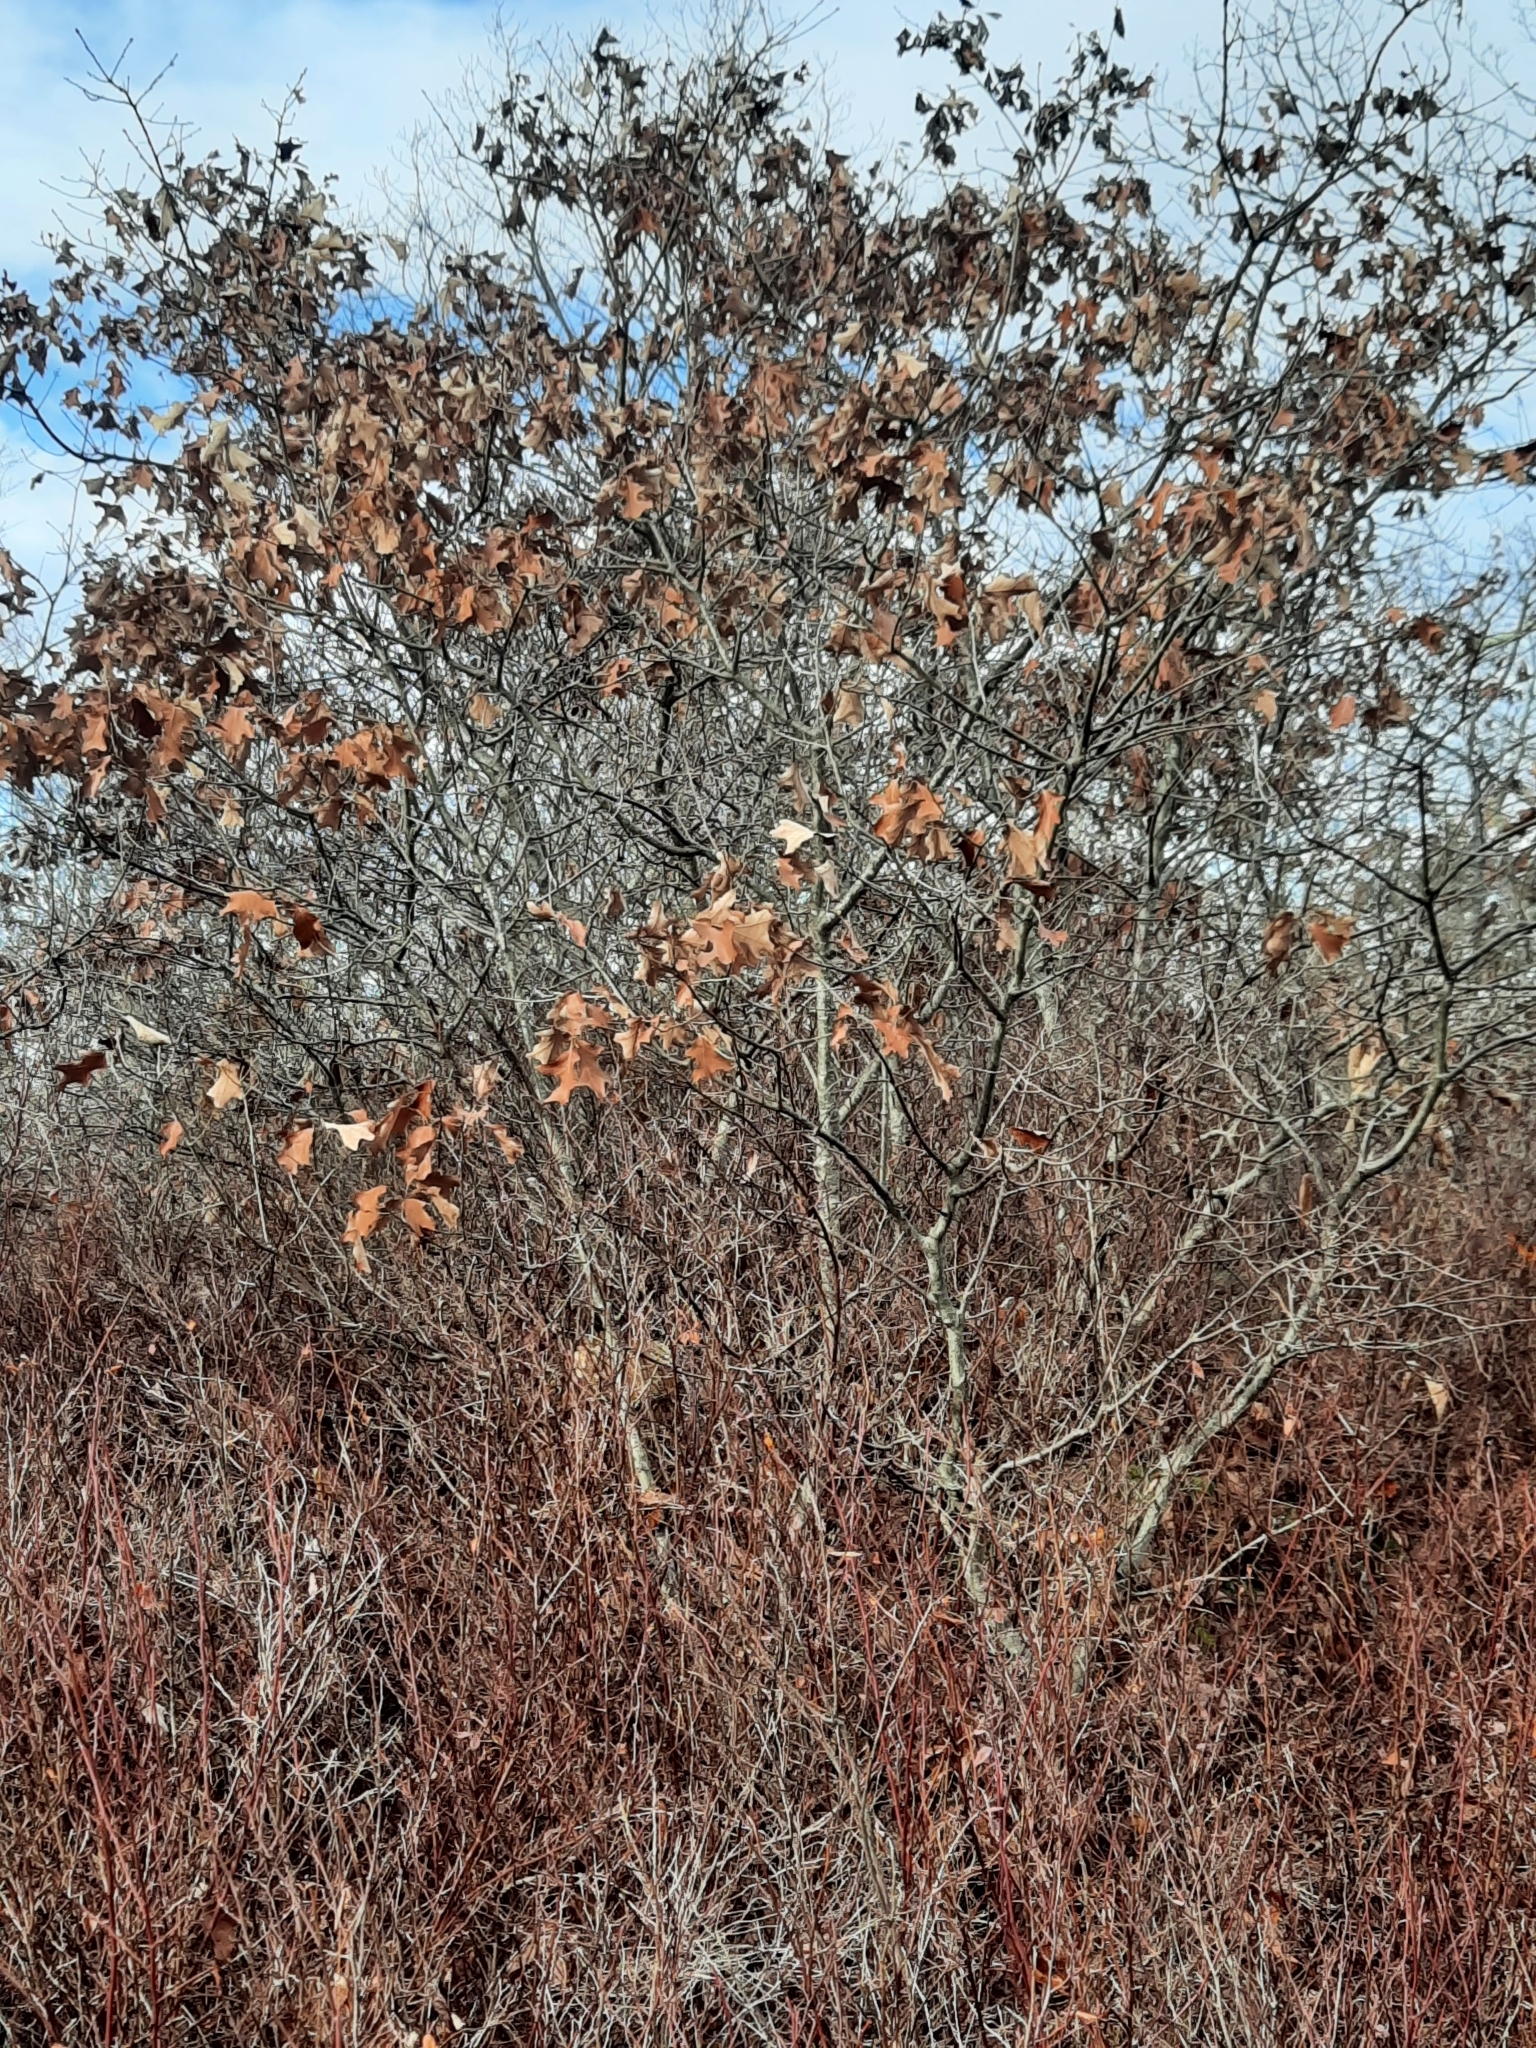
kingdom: Plantae
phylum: Tracheophyta
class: Magnoliopsida
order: Fagales
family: Fagaceae
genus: Quercus
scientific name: Quercus ilicifolia
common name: Bear oak
